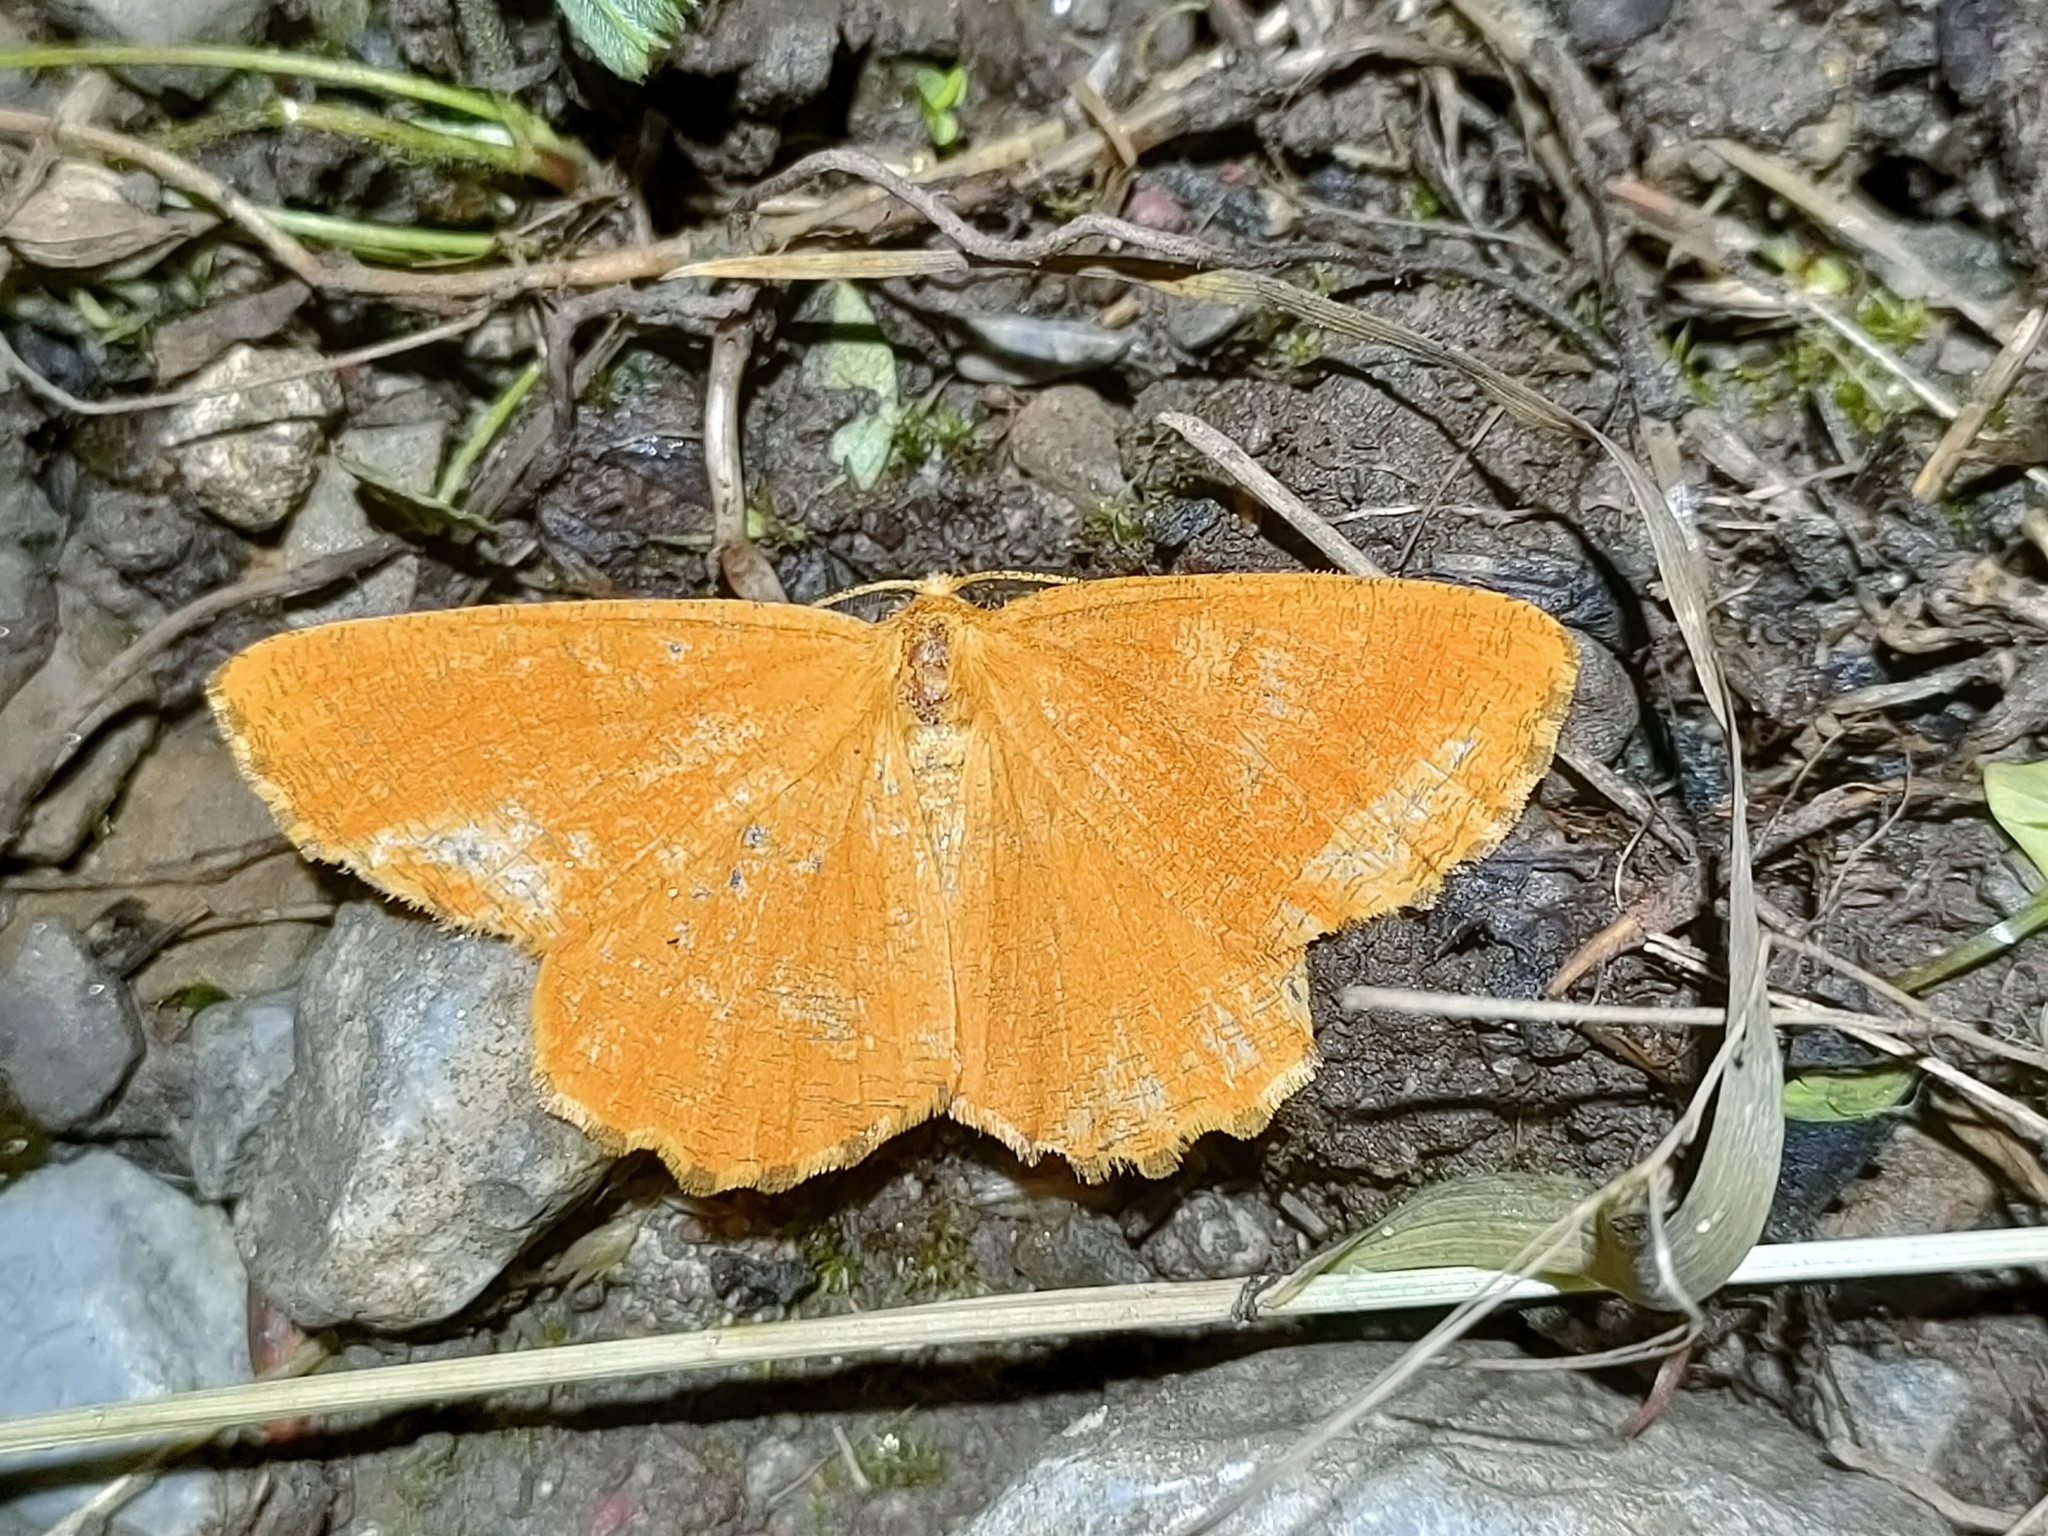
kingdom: Animalia
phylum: Arthropoda
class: Insecta
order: Lepidoptera
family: Geometridae
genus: Angerona
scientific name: Angerona prunaria
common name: Orange moth
